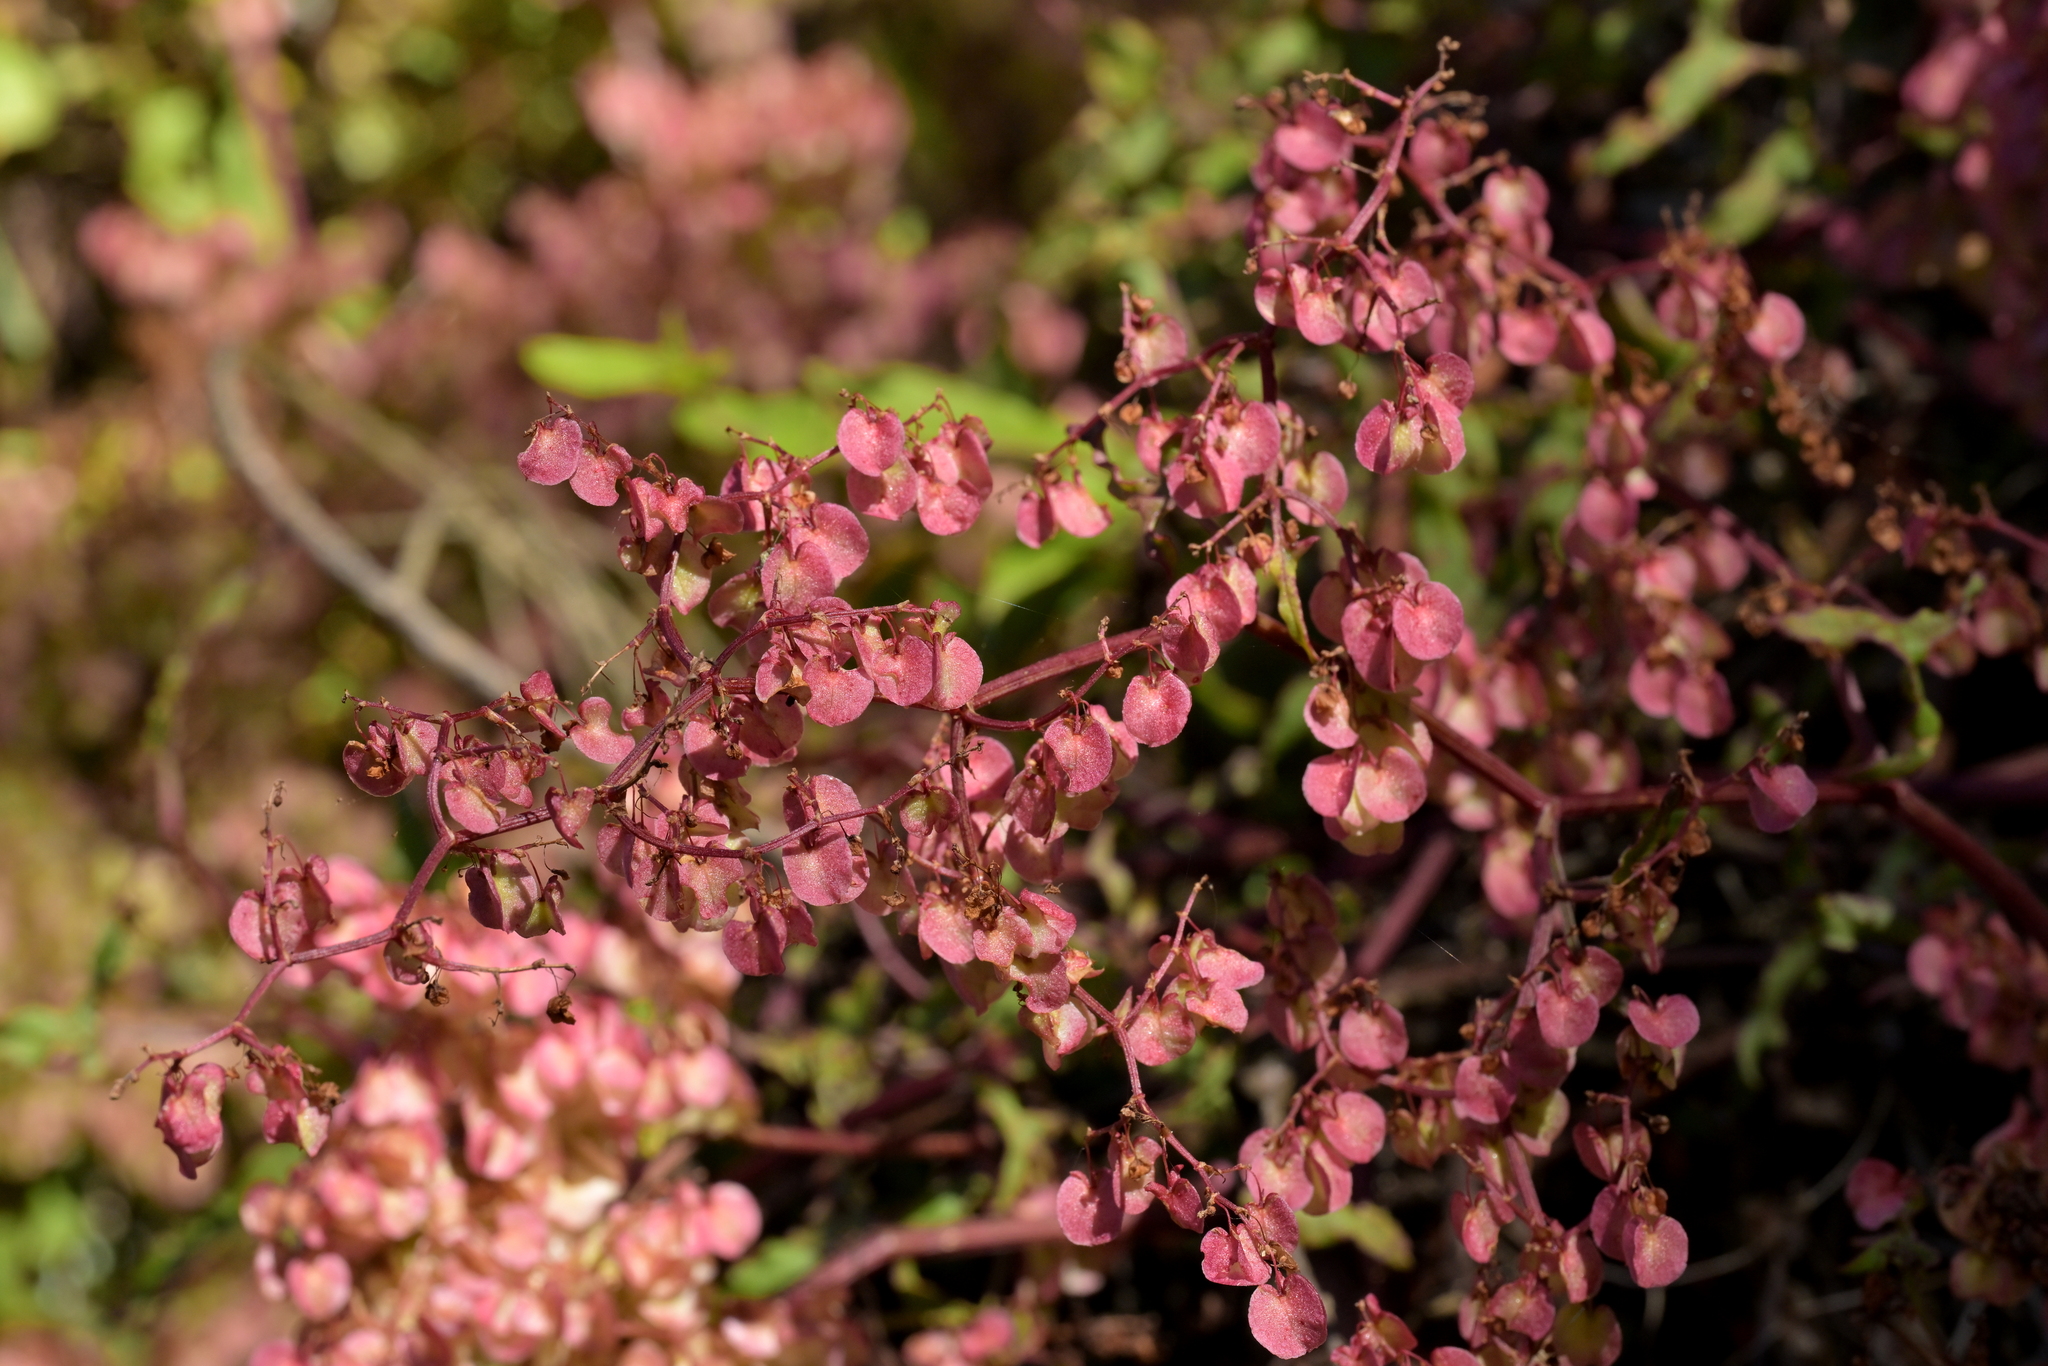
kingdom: Plantae
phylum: Tracheophyta
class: Magnoliopsida
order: Caryophyllales
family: Polygonaceae
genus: Rumex
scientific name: Rumex sagittatus
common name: Climbing dock
